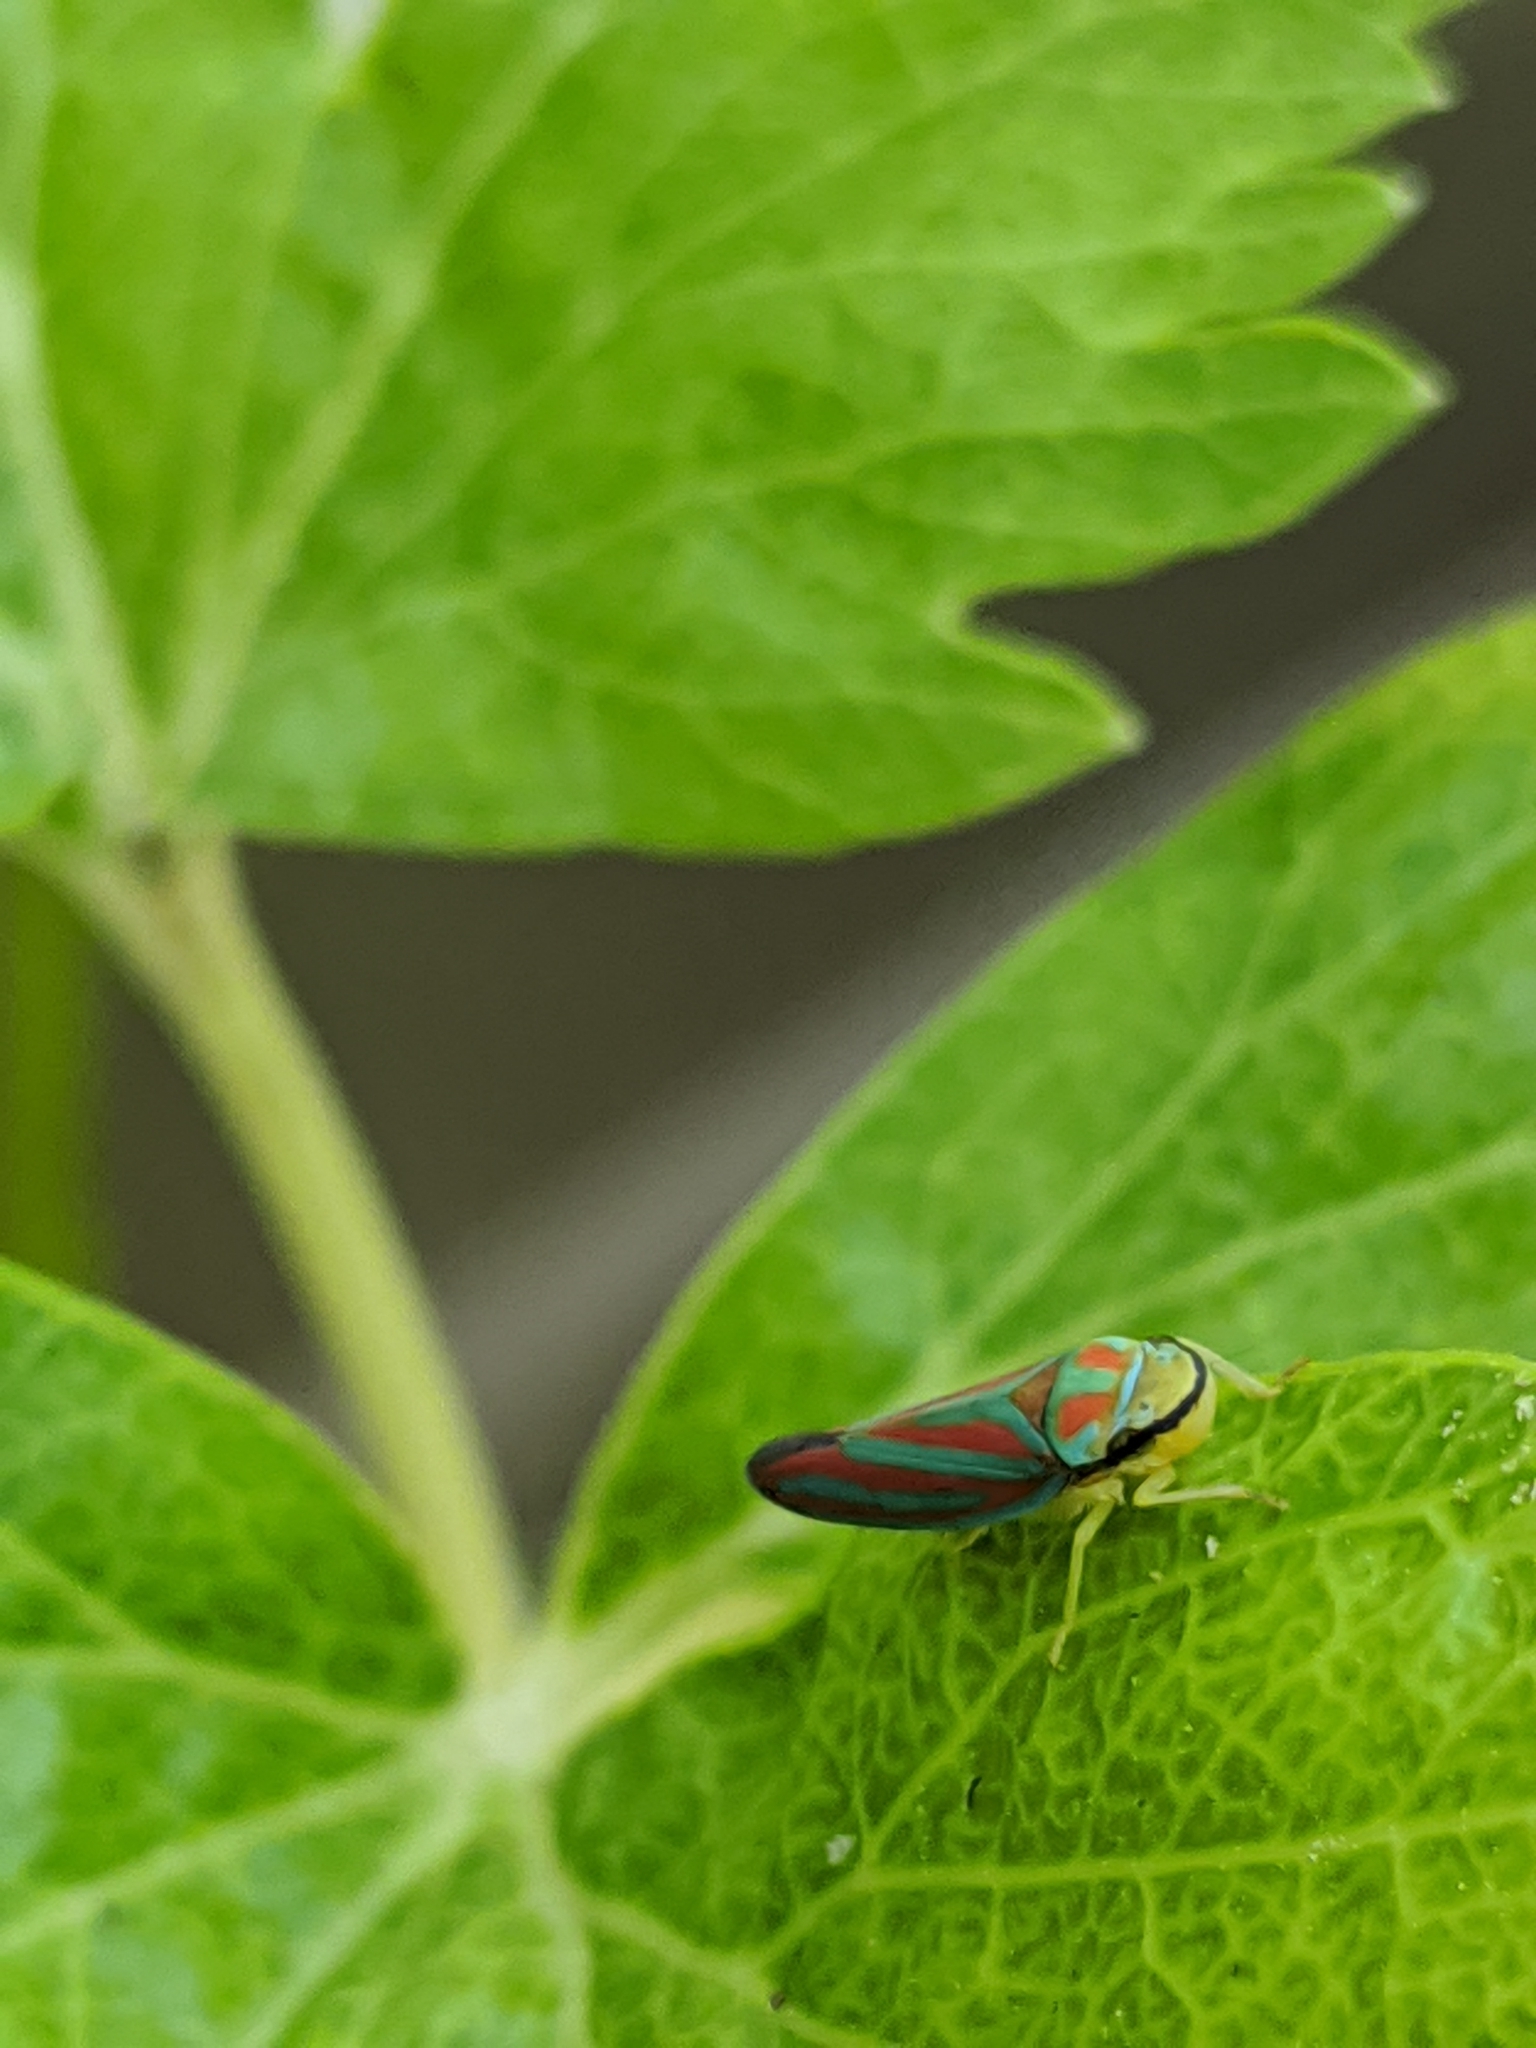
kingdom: Animalia
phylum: Arthropoda
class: Insecta
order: Hemiptera
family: Cicadellidae
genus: Graphocephala
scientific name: Graphocephala coccinea
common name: Candy-striped leafhopper
